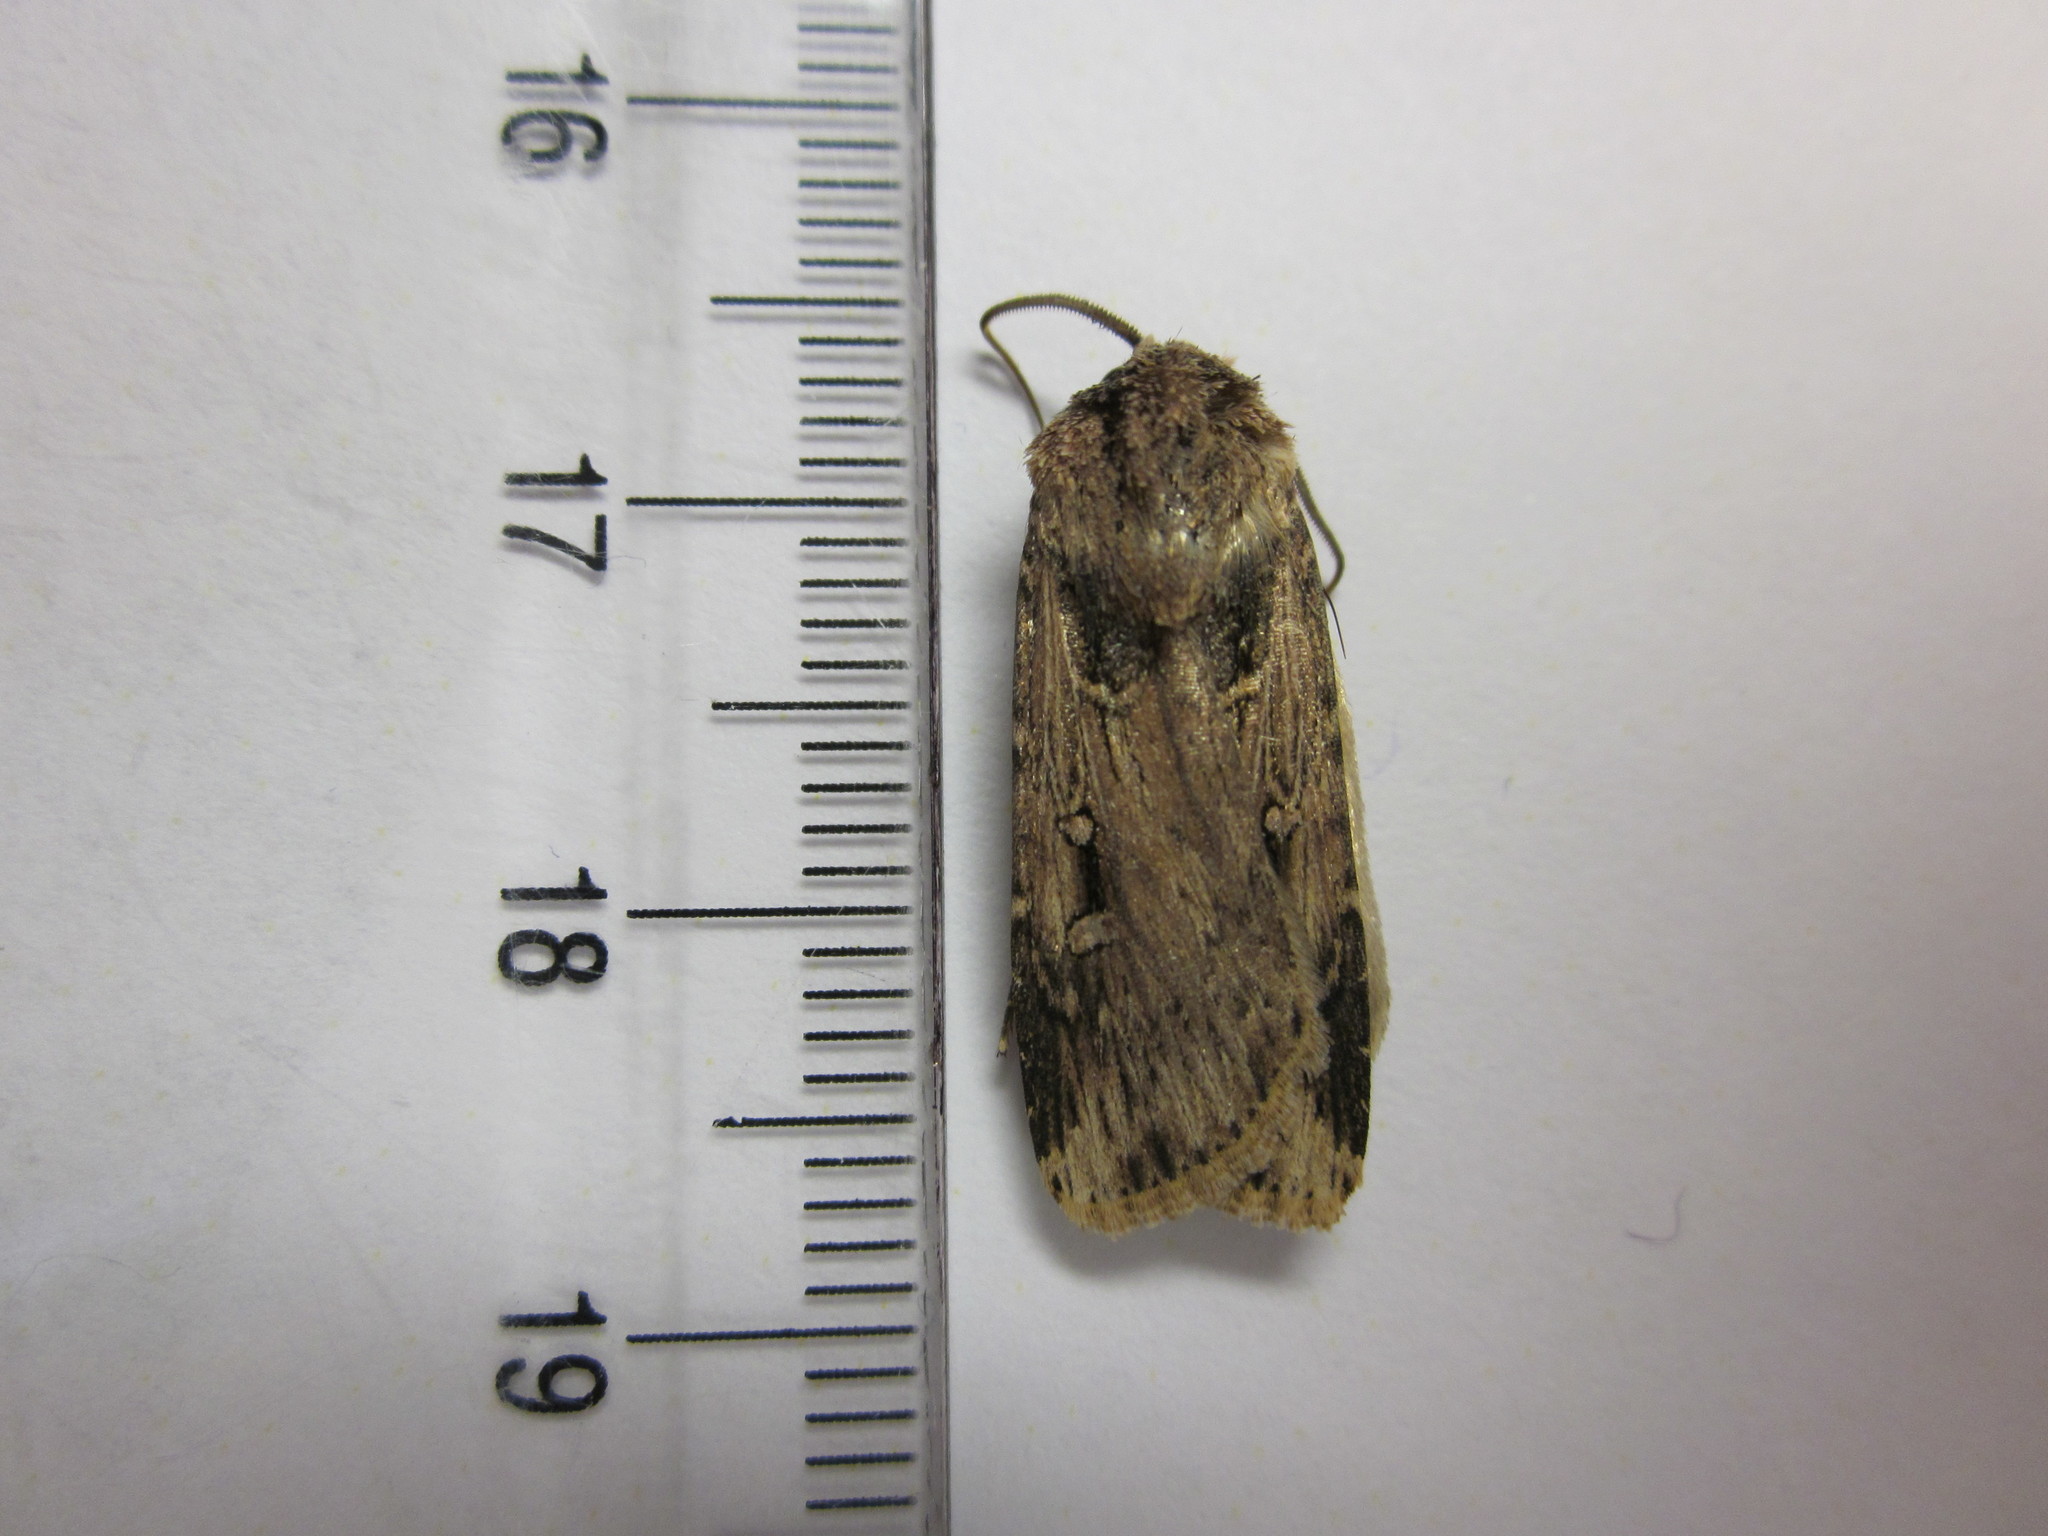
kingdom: Animalia
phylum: Arthropoda
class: Insecta
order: Lepidoptera
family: Noctuidae
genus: Feltia
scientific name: Feltia subterranea
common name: Granulate cutworm
